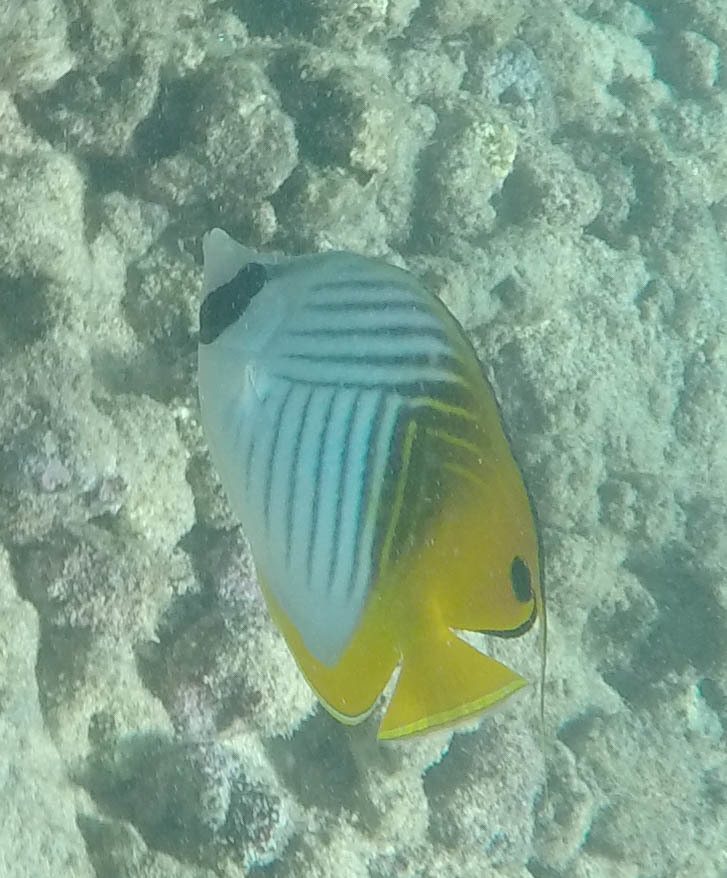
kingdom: Animalia
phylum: Chordata
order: Perciformes
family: Chaetodontidae
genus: Chaetodon
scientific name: Chaetodon auriga
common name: Threadfin butterflyfish
